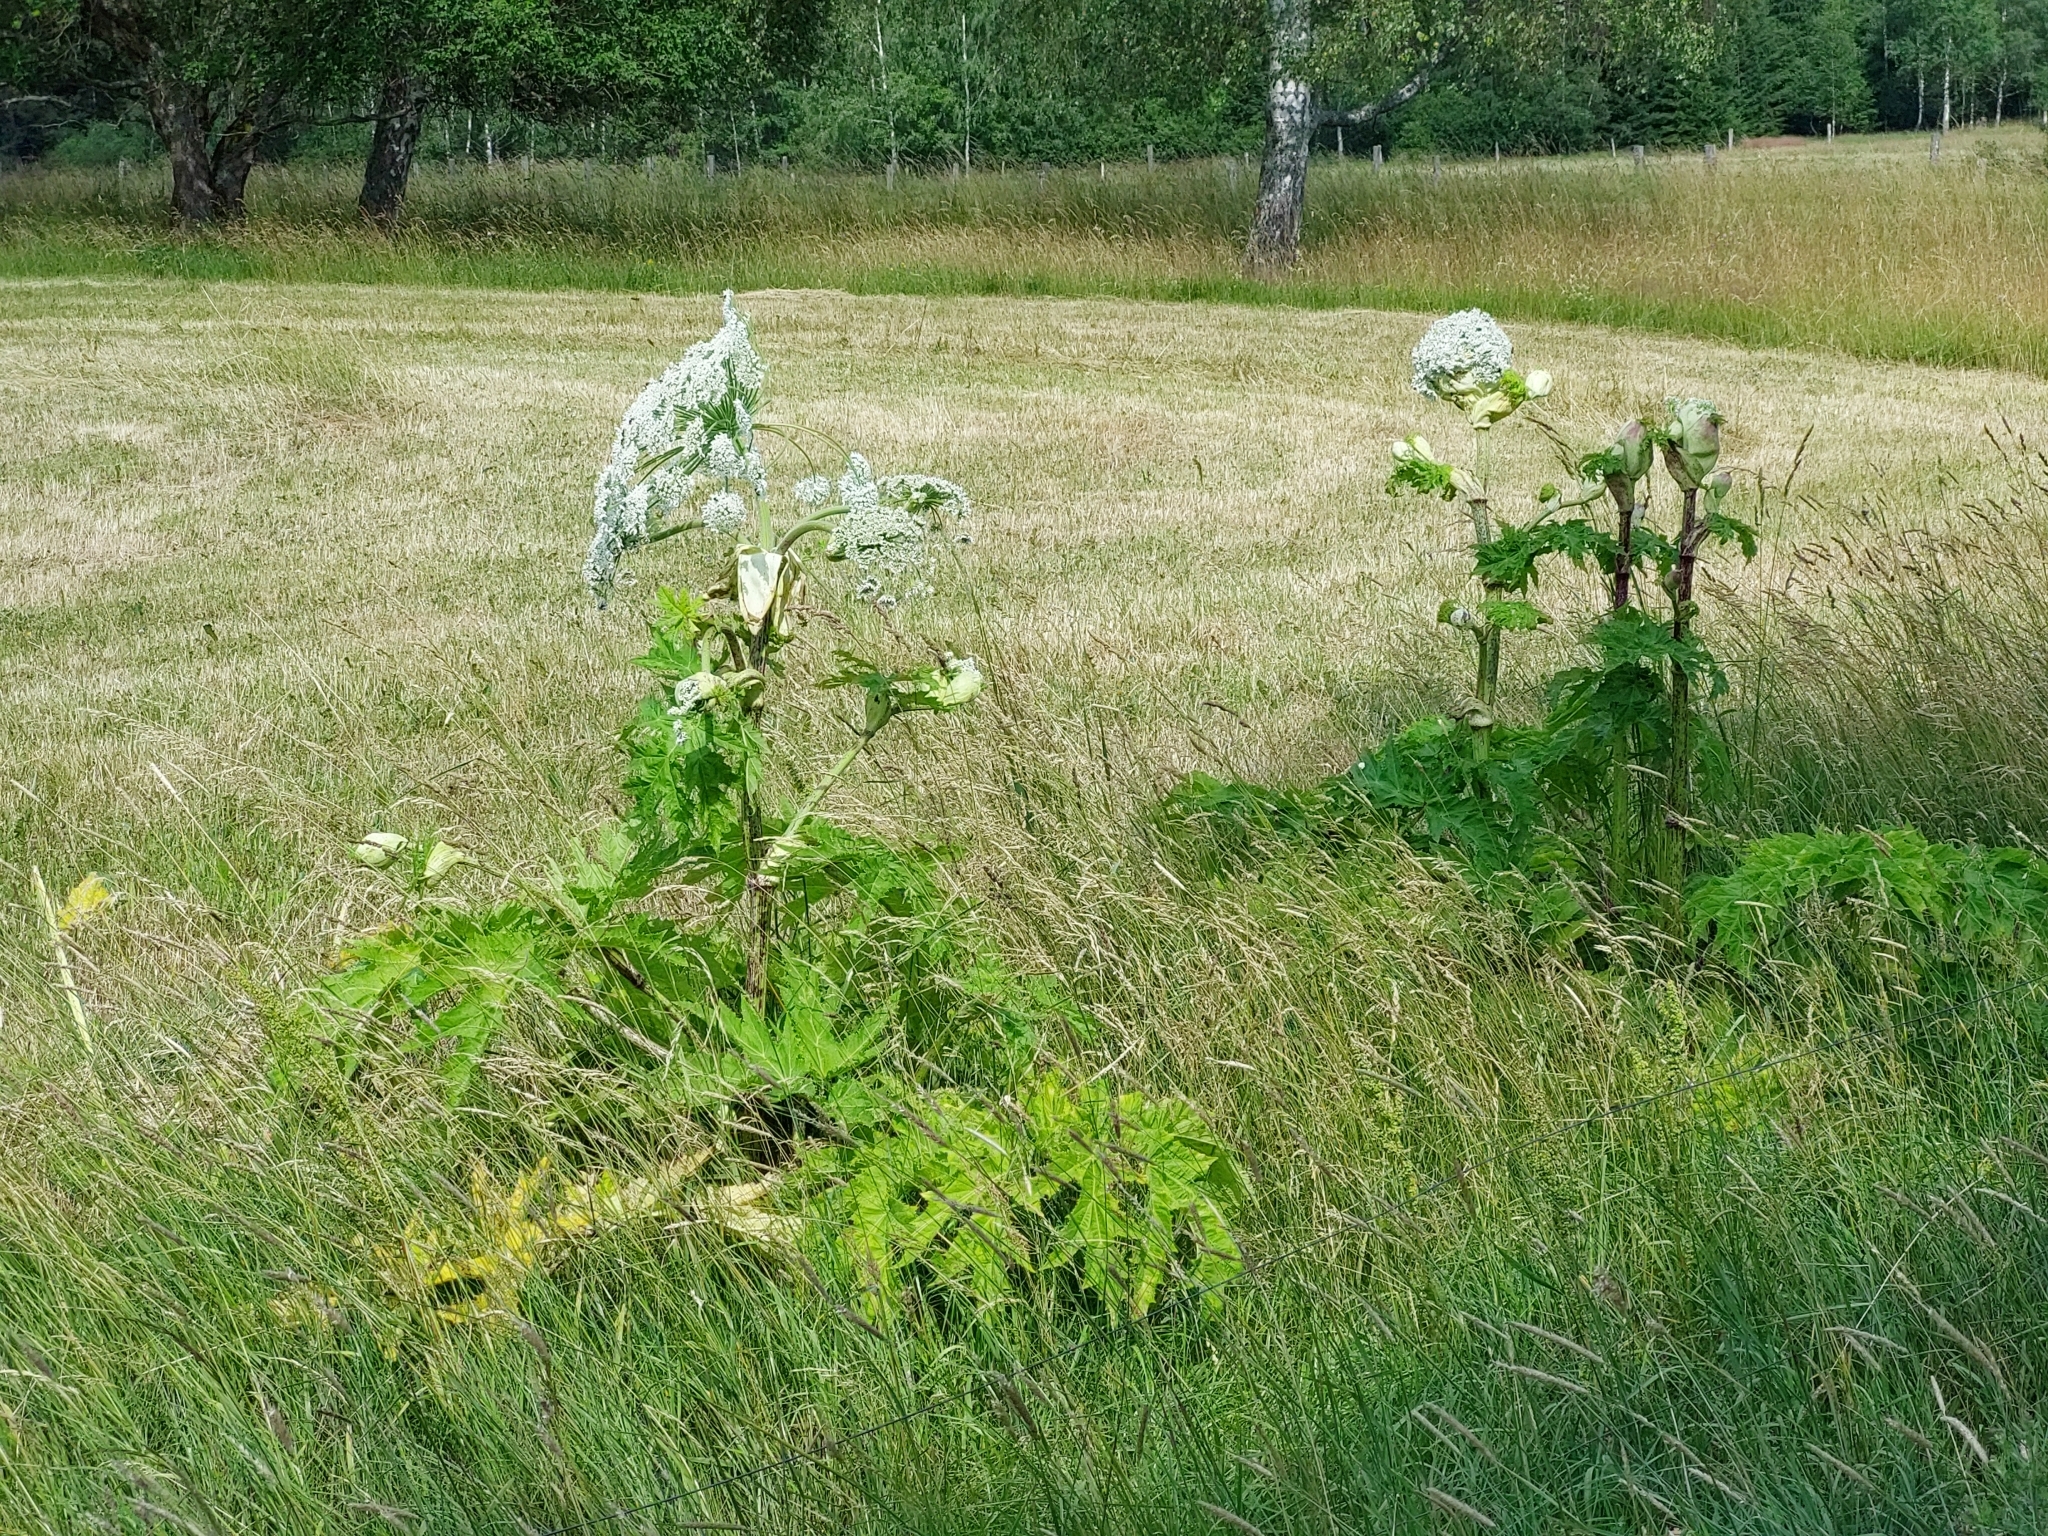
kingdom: Plantae
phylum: Tracheophyta
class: Magnoliopsida
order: Apiales
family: Apiaceae
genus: Heracleum
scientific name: Heracleum mantegazzianum
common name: Giant hogweed
